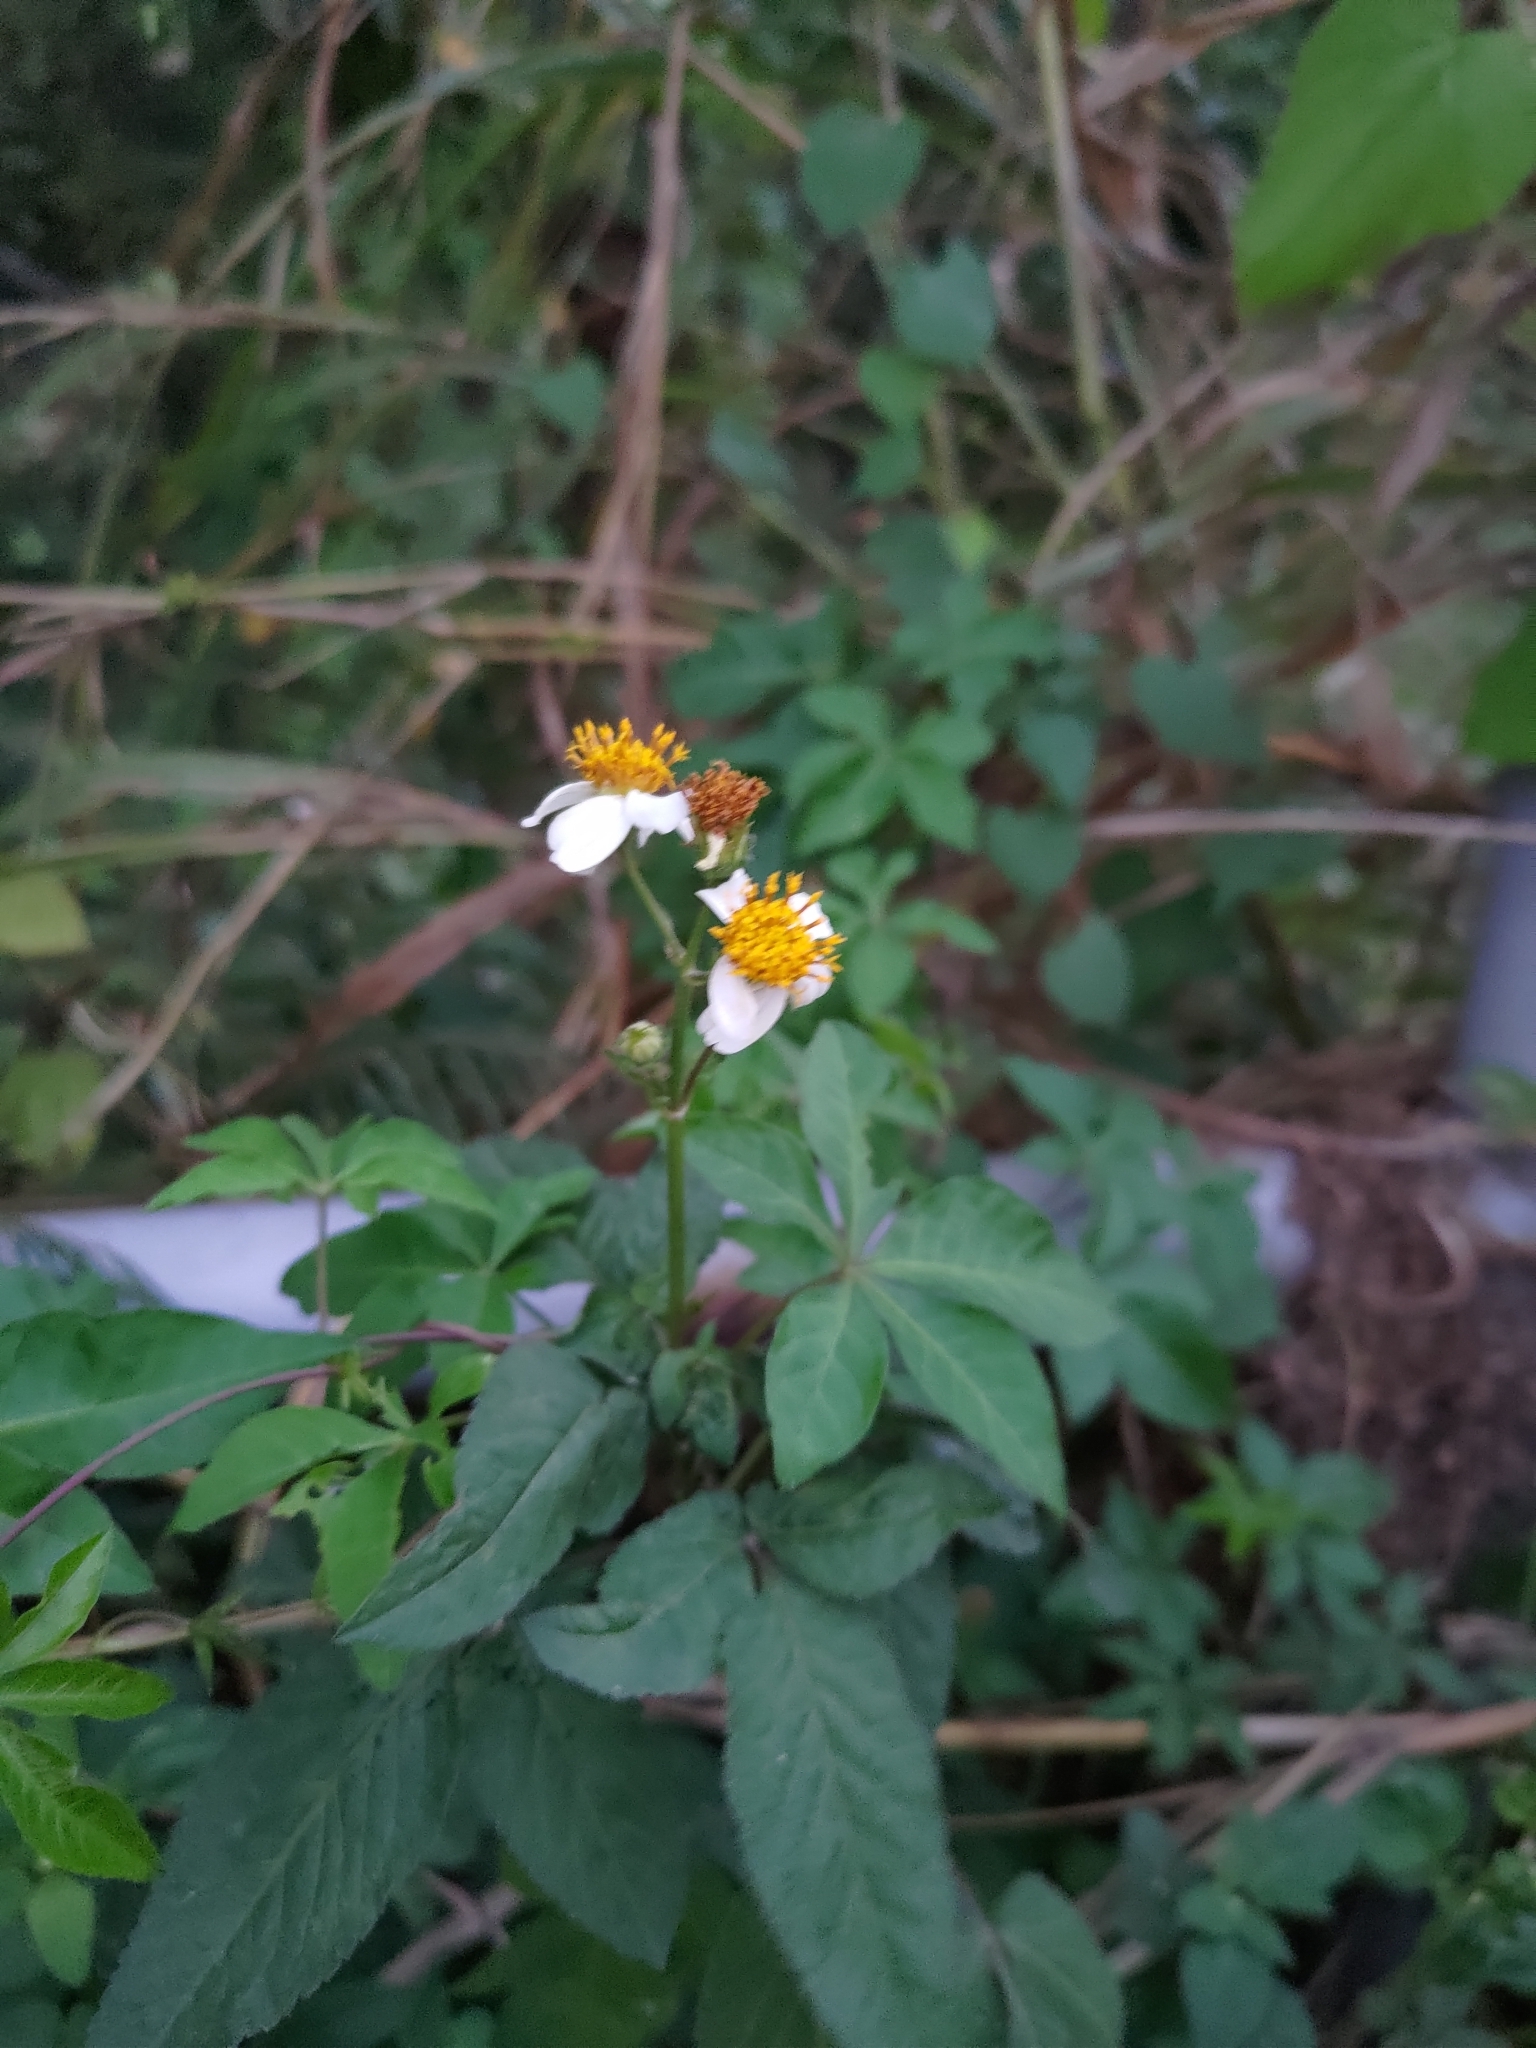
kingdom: Plantae
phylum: Tracheophyta
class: Magnoliopsida
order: Asterales
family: Asteraceae
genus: Bidens
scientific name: Bidens alba
